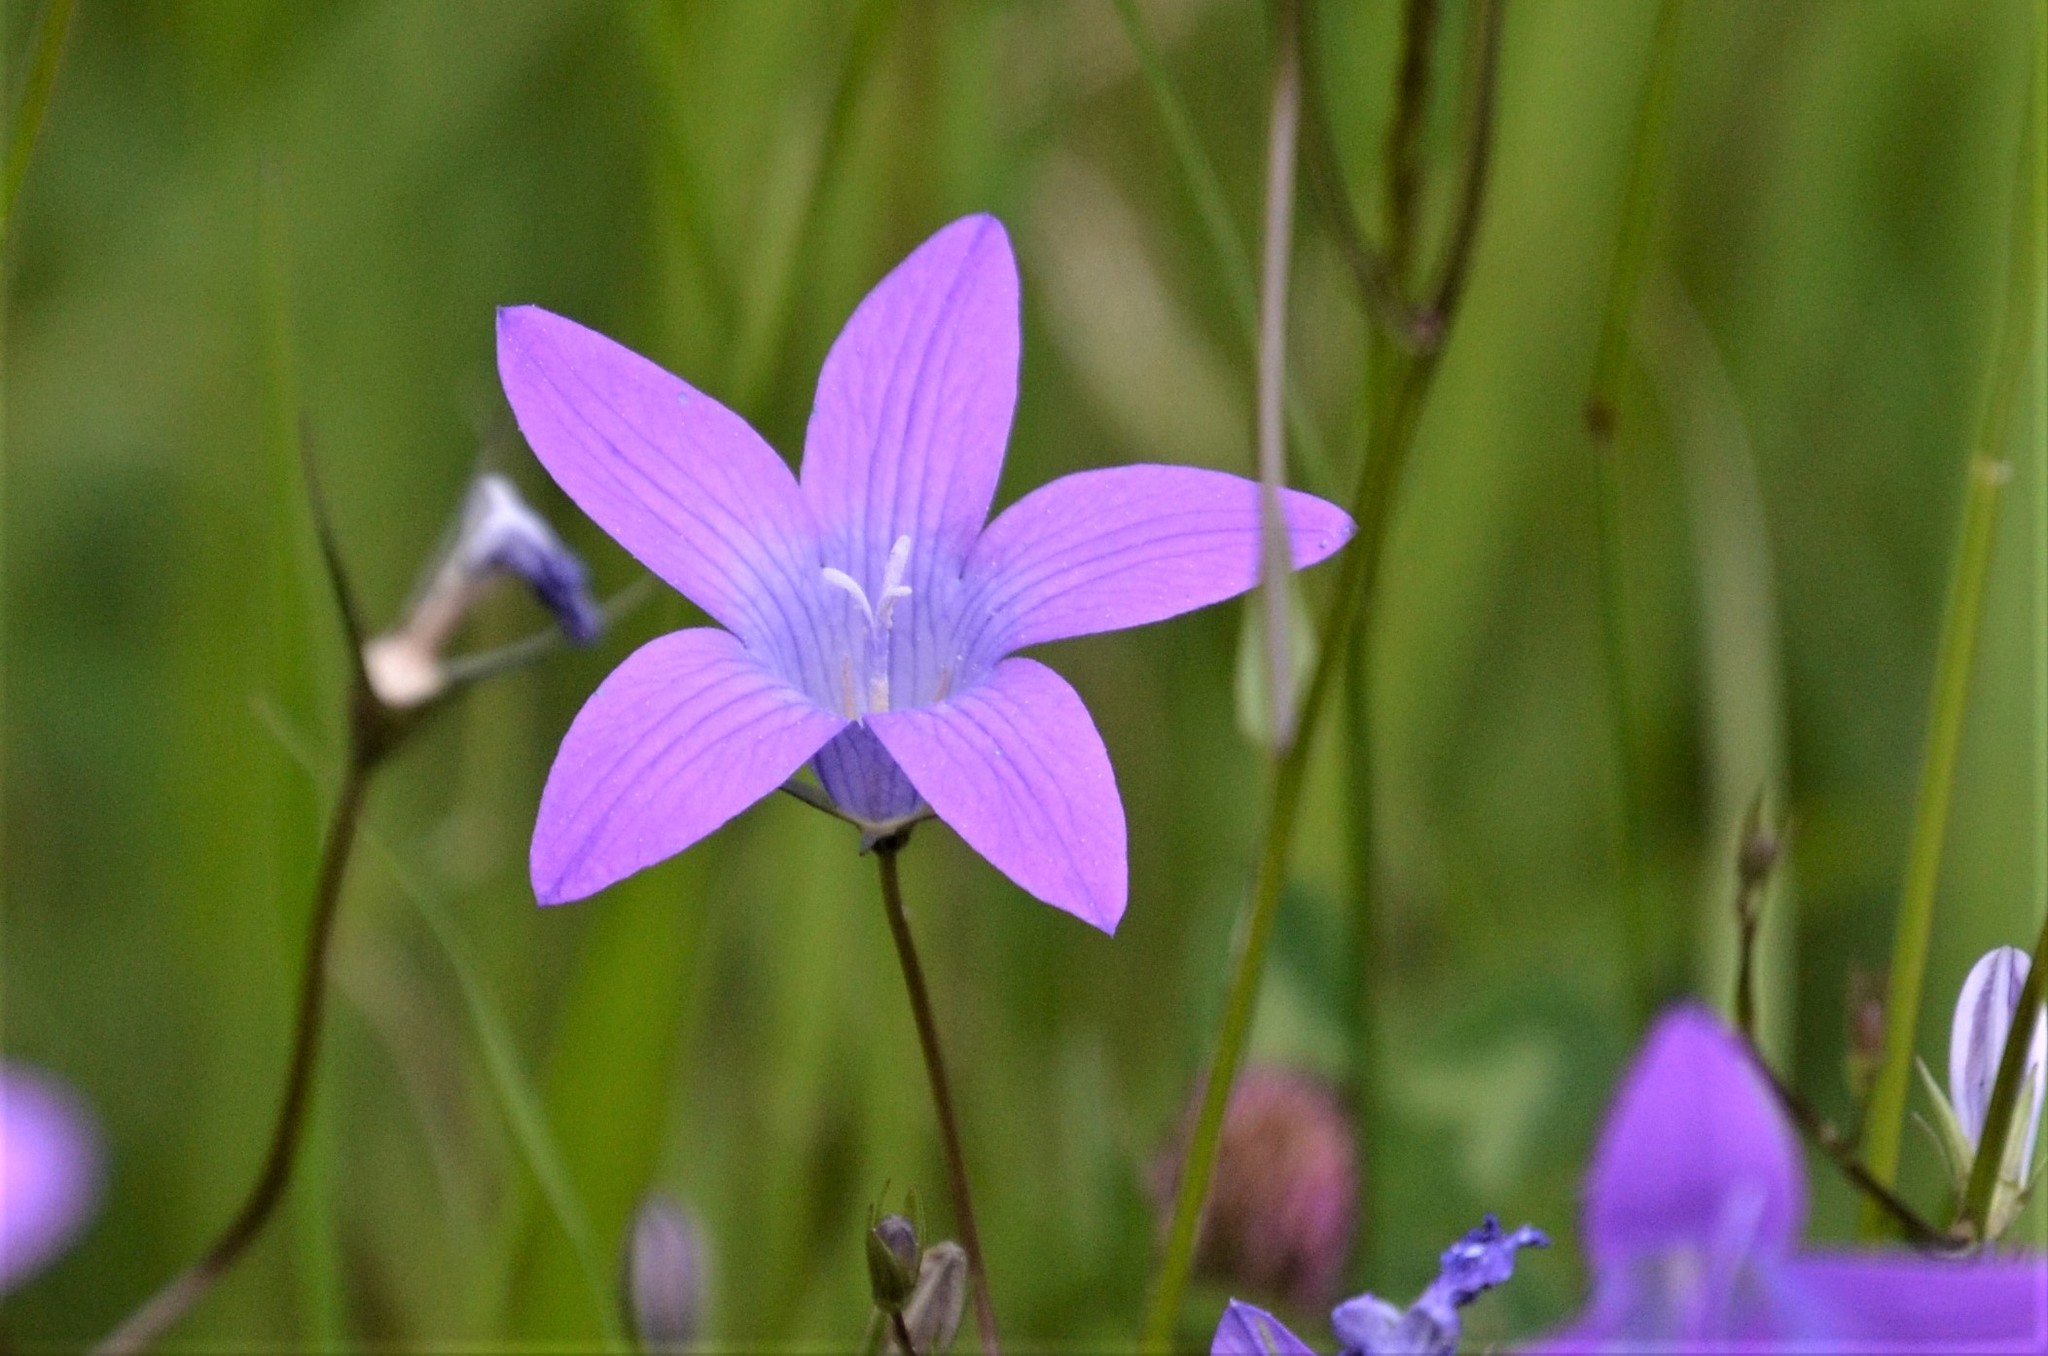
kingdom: Plantae
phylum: Tracheophyta
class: Magnoliopsida
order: Asterales
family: Campanulaceae
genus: Campanula
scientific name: Campanula patula
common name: Spreading bellflower
